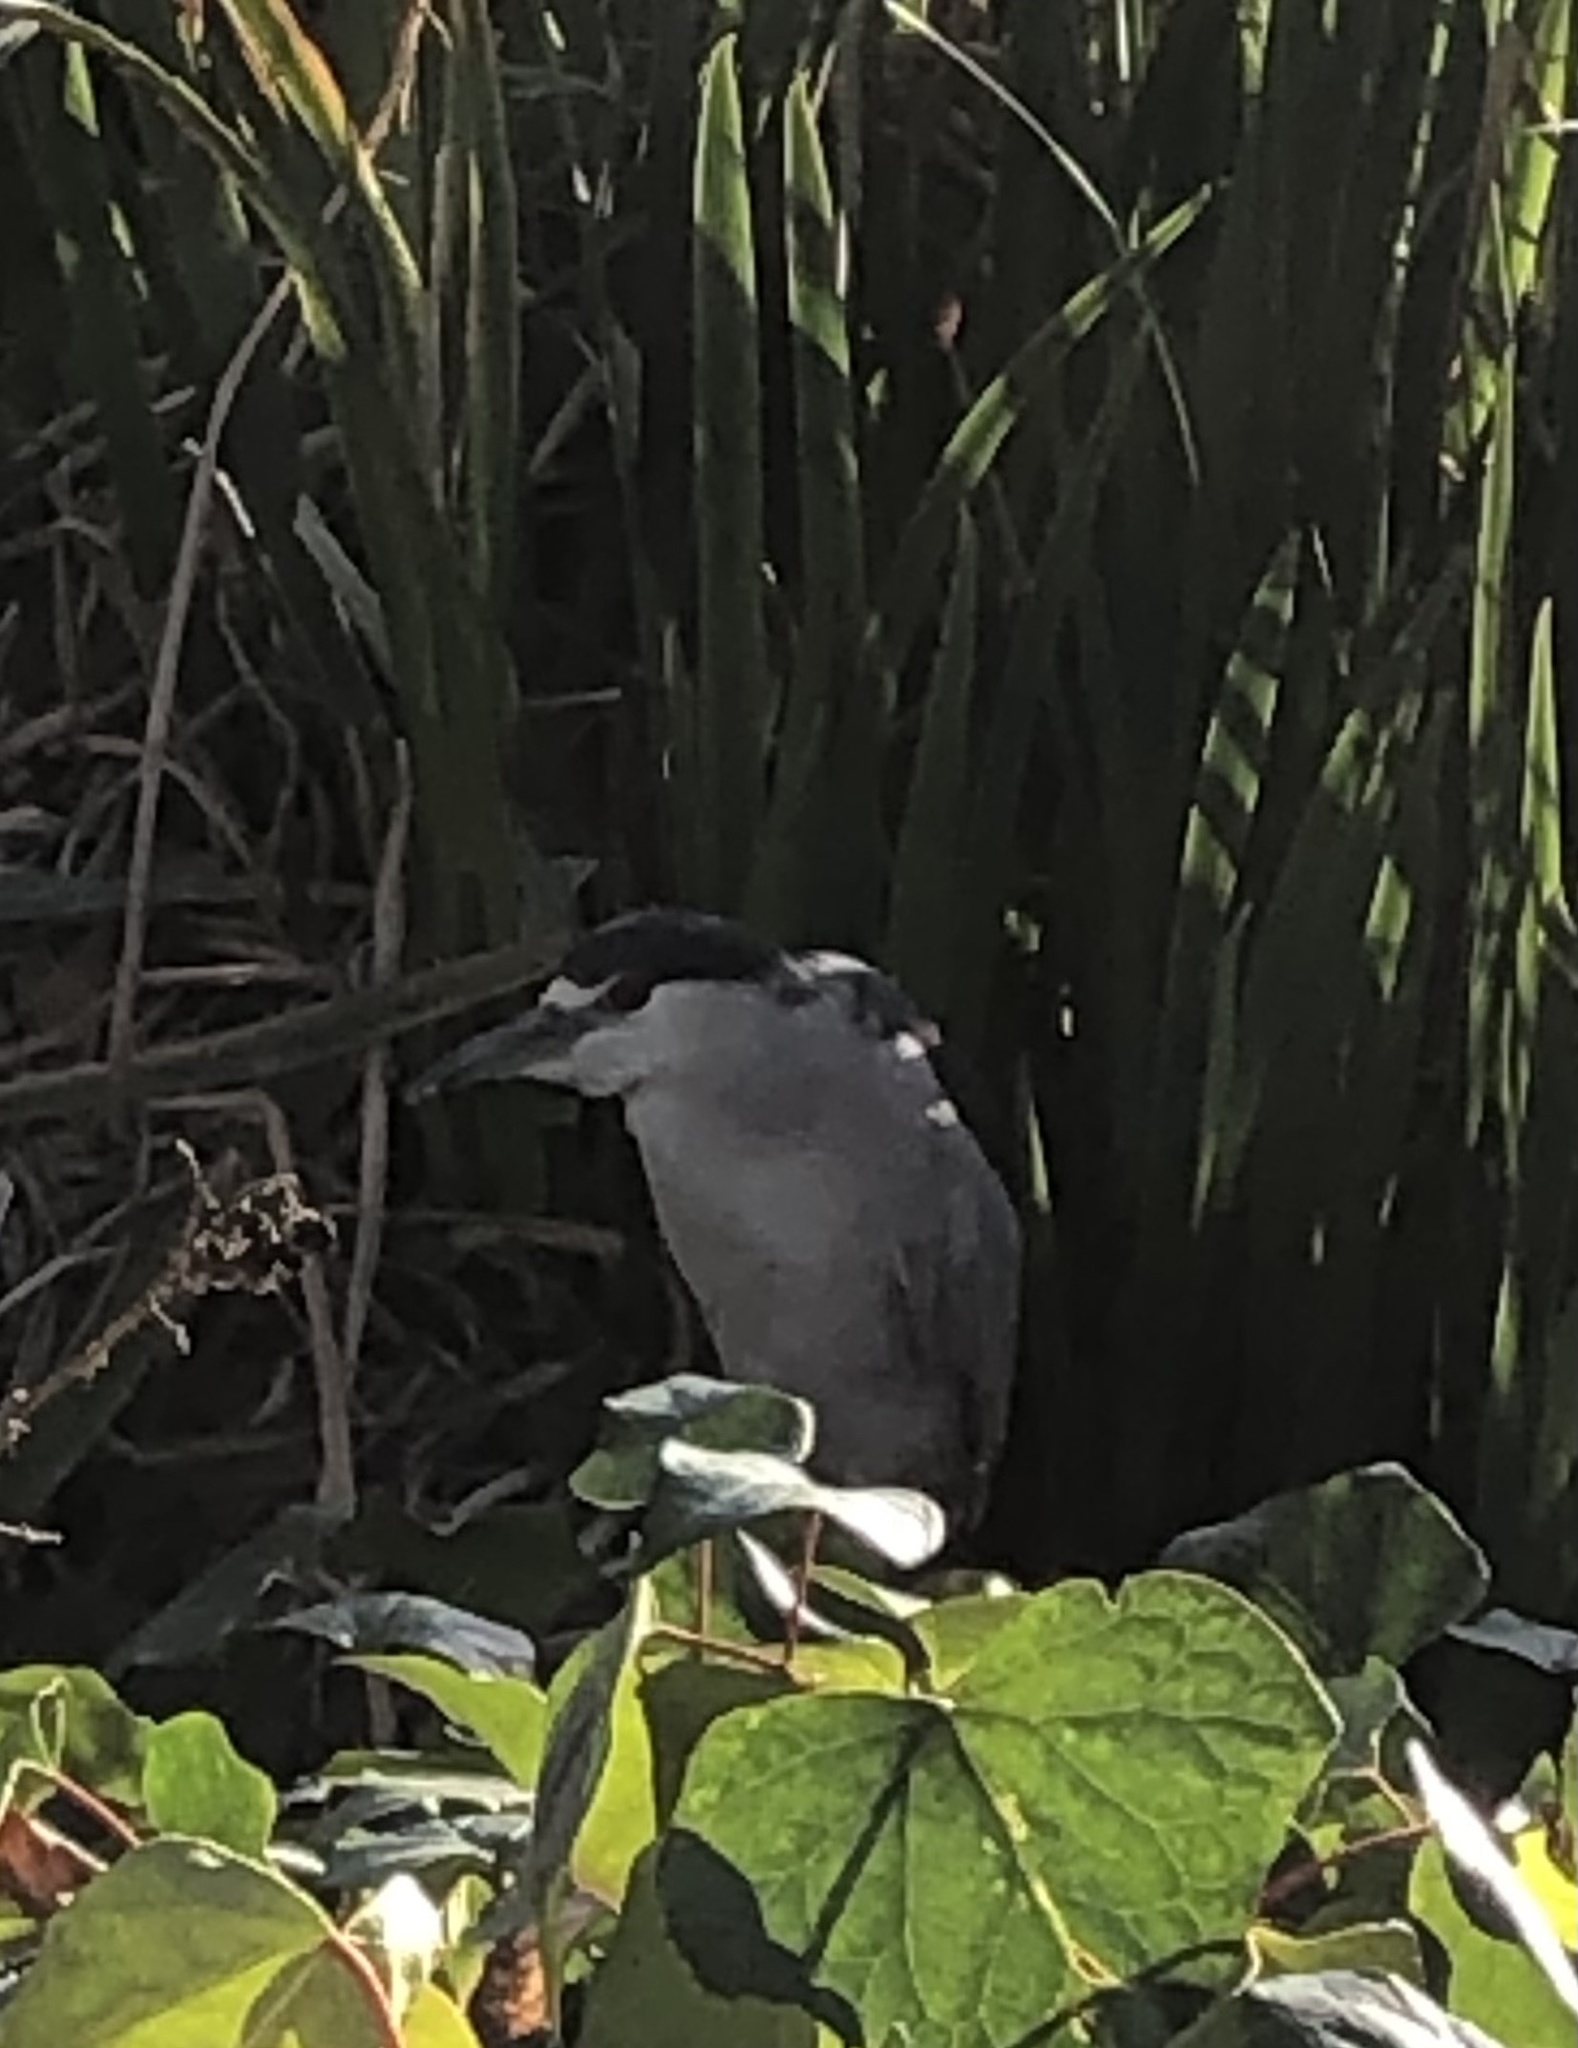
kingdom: Animalia
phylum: Chordata
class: Aves
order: Pelecaniformes
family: Ardeidae
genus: Nycticorax
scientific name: Nycticorax nycticorax
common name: Black-crowned night heron
